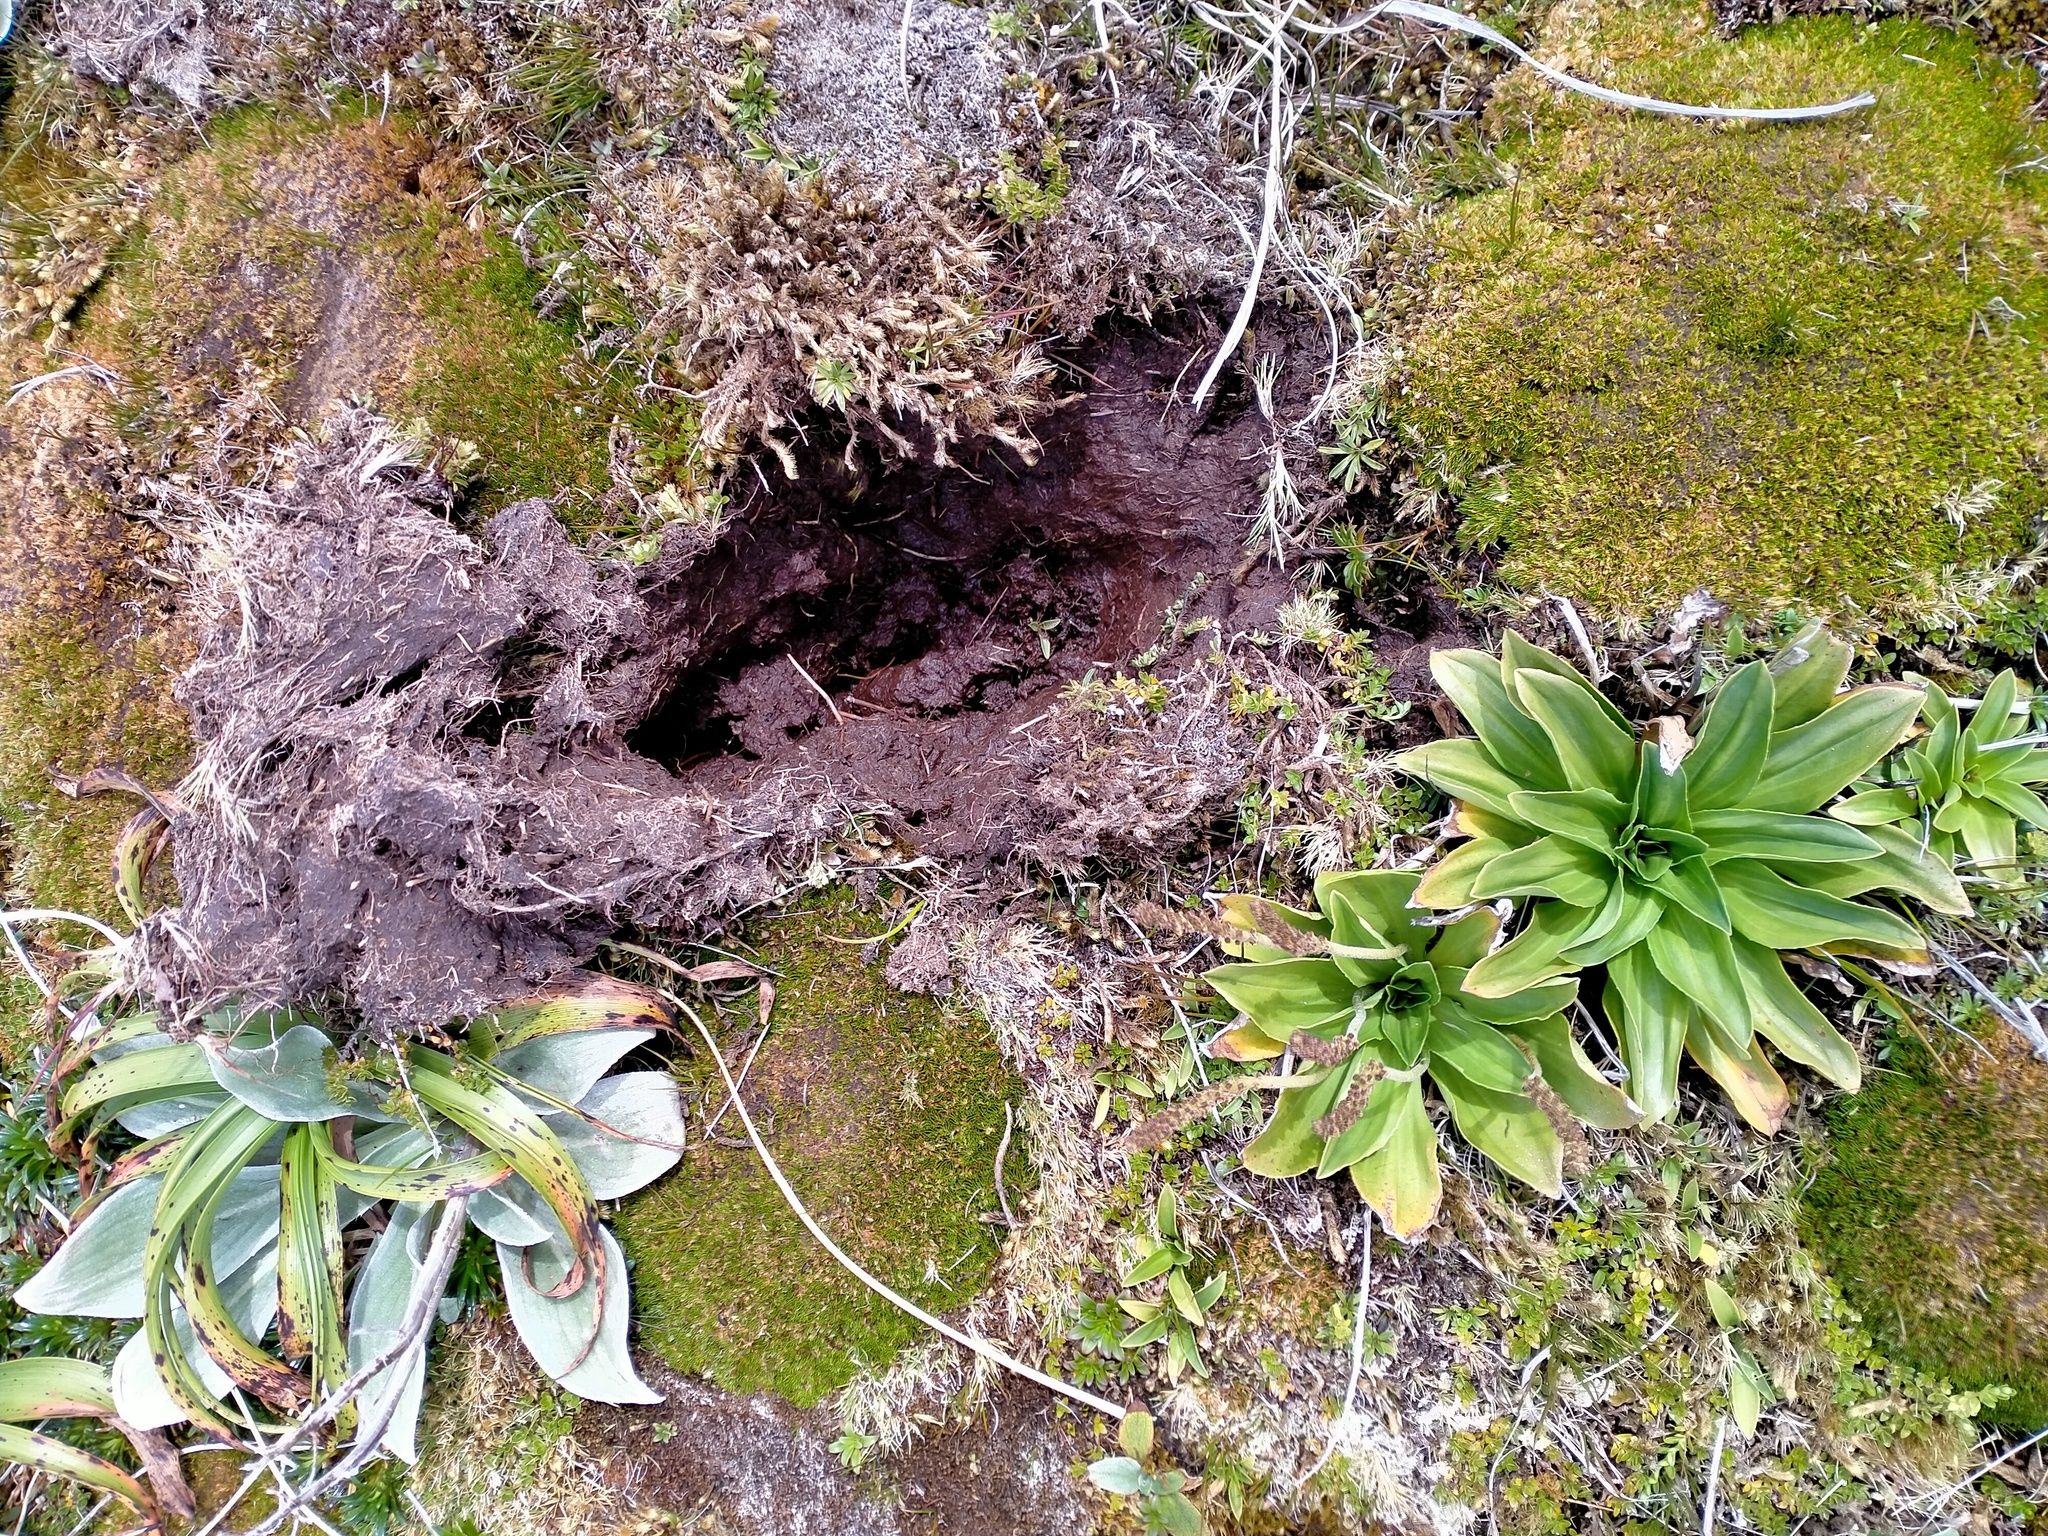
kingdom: Plantae
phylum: Tracheophyta
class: Magnoliopsida
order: Lamiales
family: Plantaginaceae
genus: Plantago
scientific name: Plantago aucklandica
